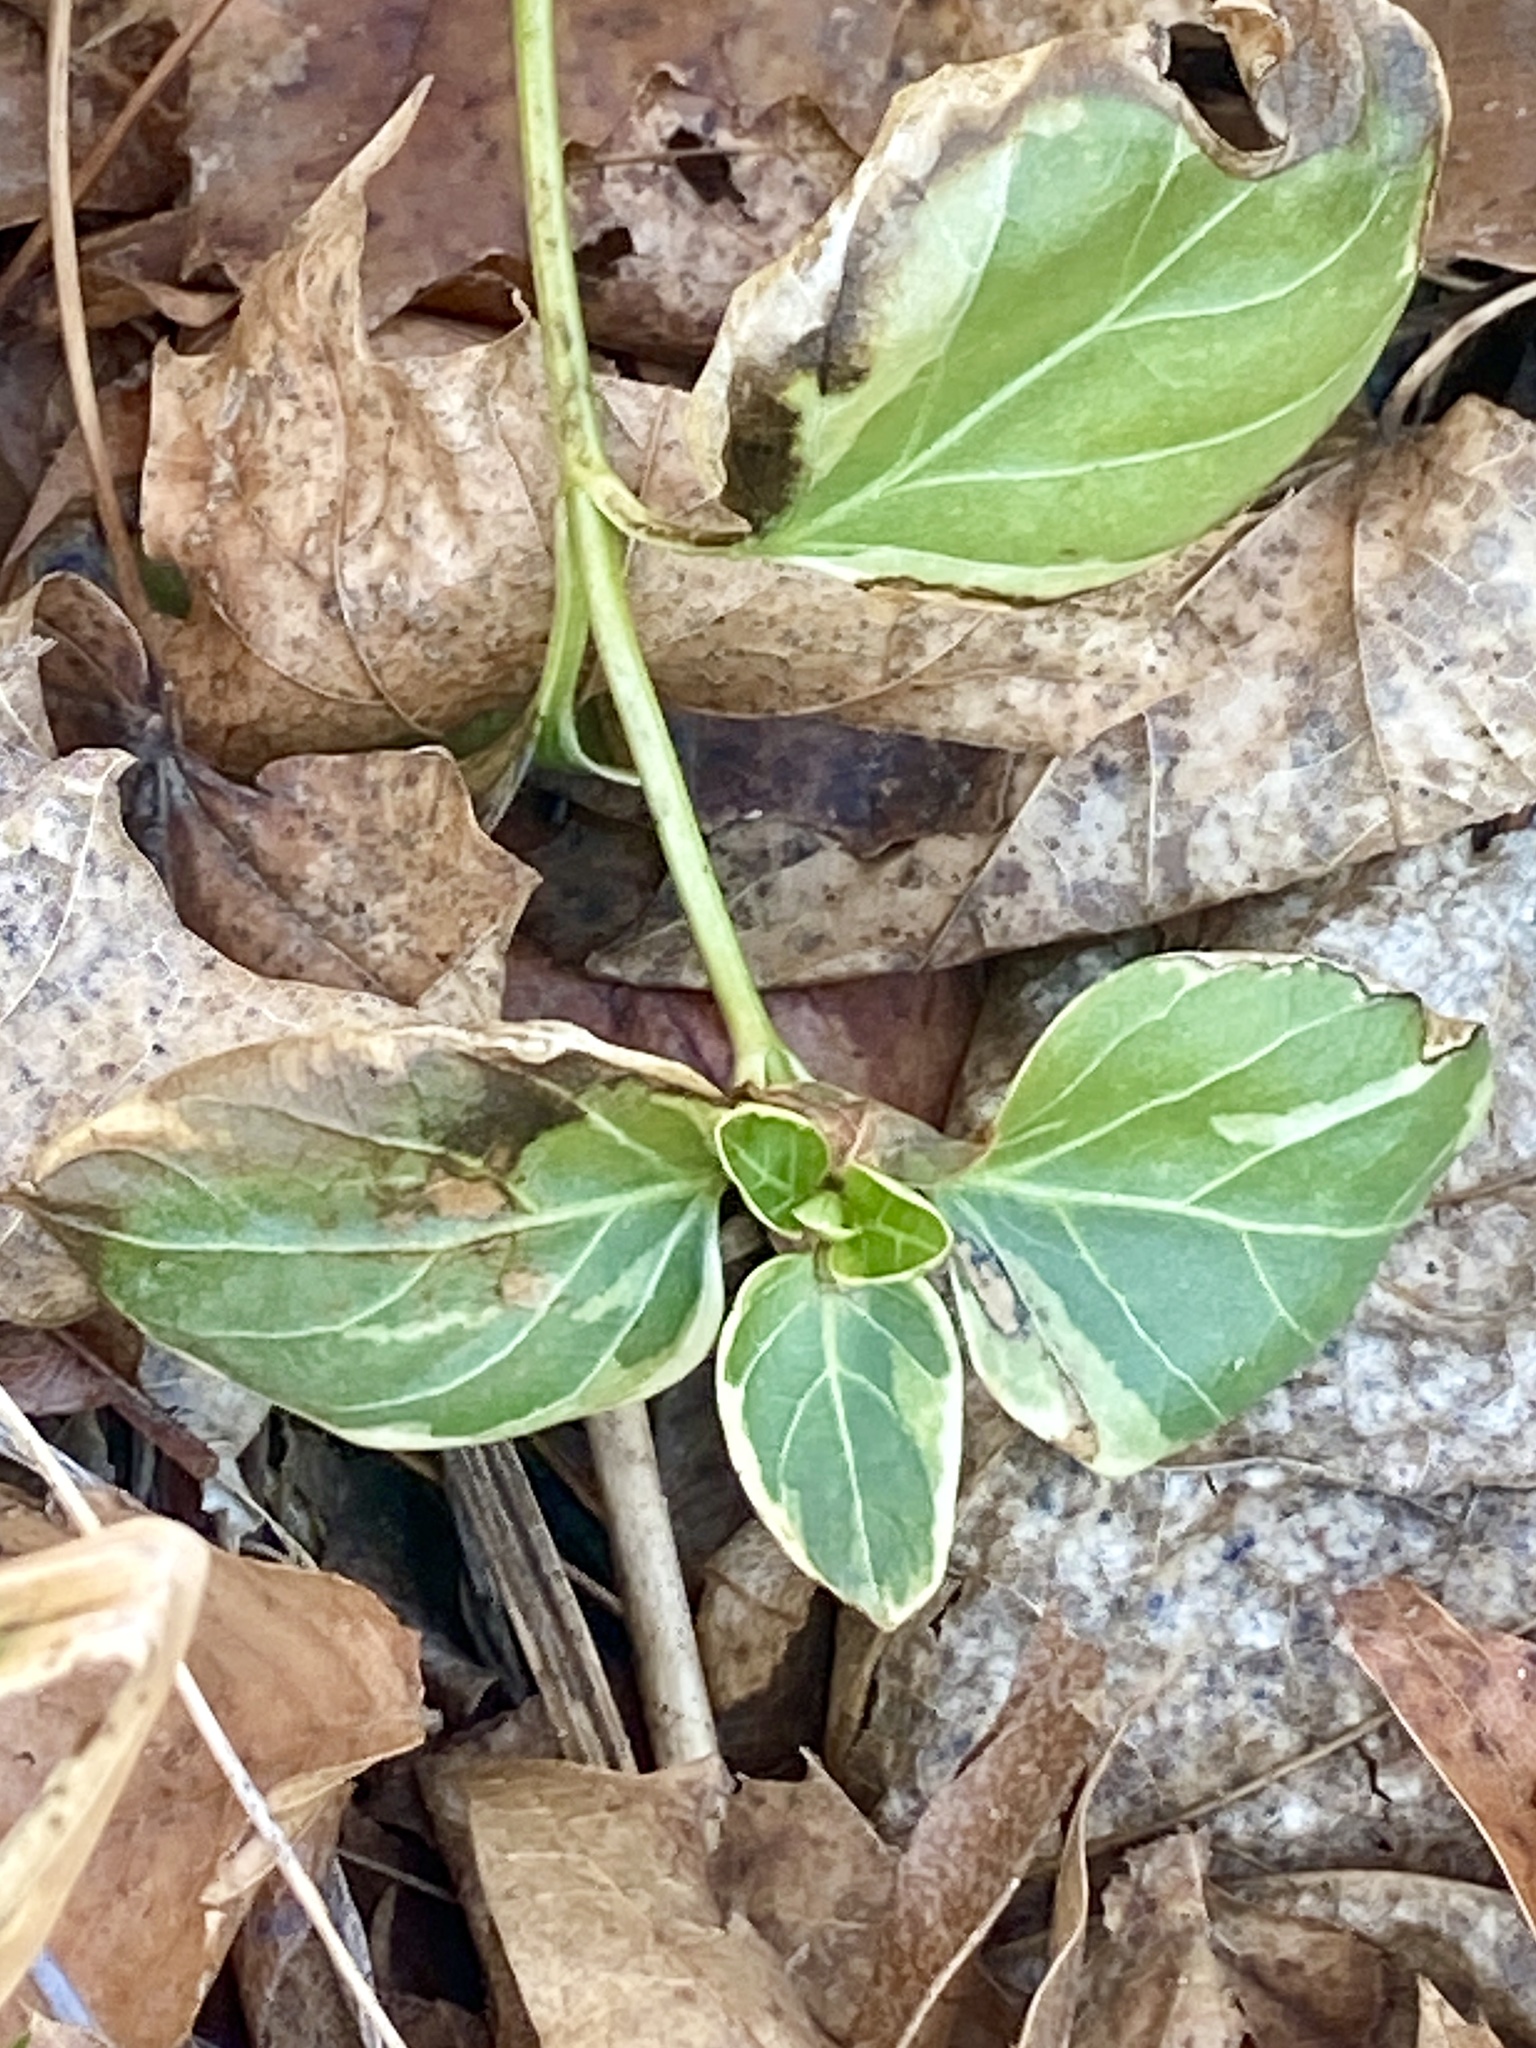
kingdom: Plantae
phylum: Tracheophyta
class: Magnoliopsida
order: Gentianales
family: Apocynaceae
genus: Vinca
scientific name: Vinca major
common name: Greater periwinkle
